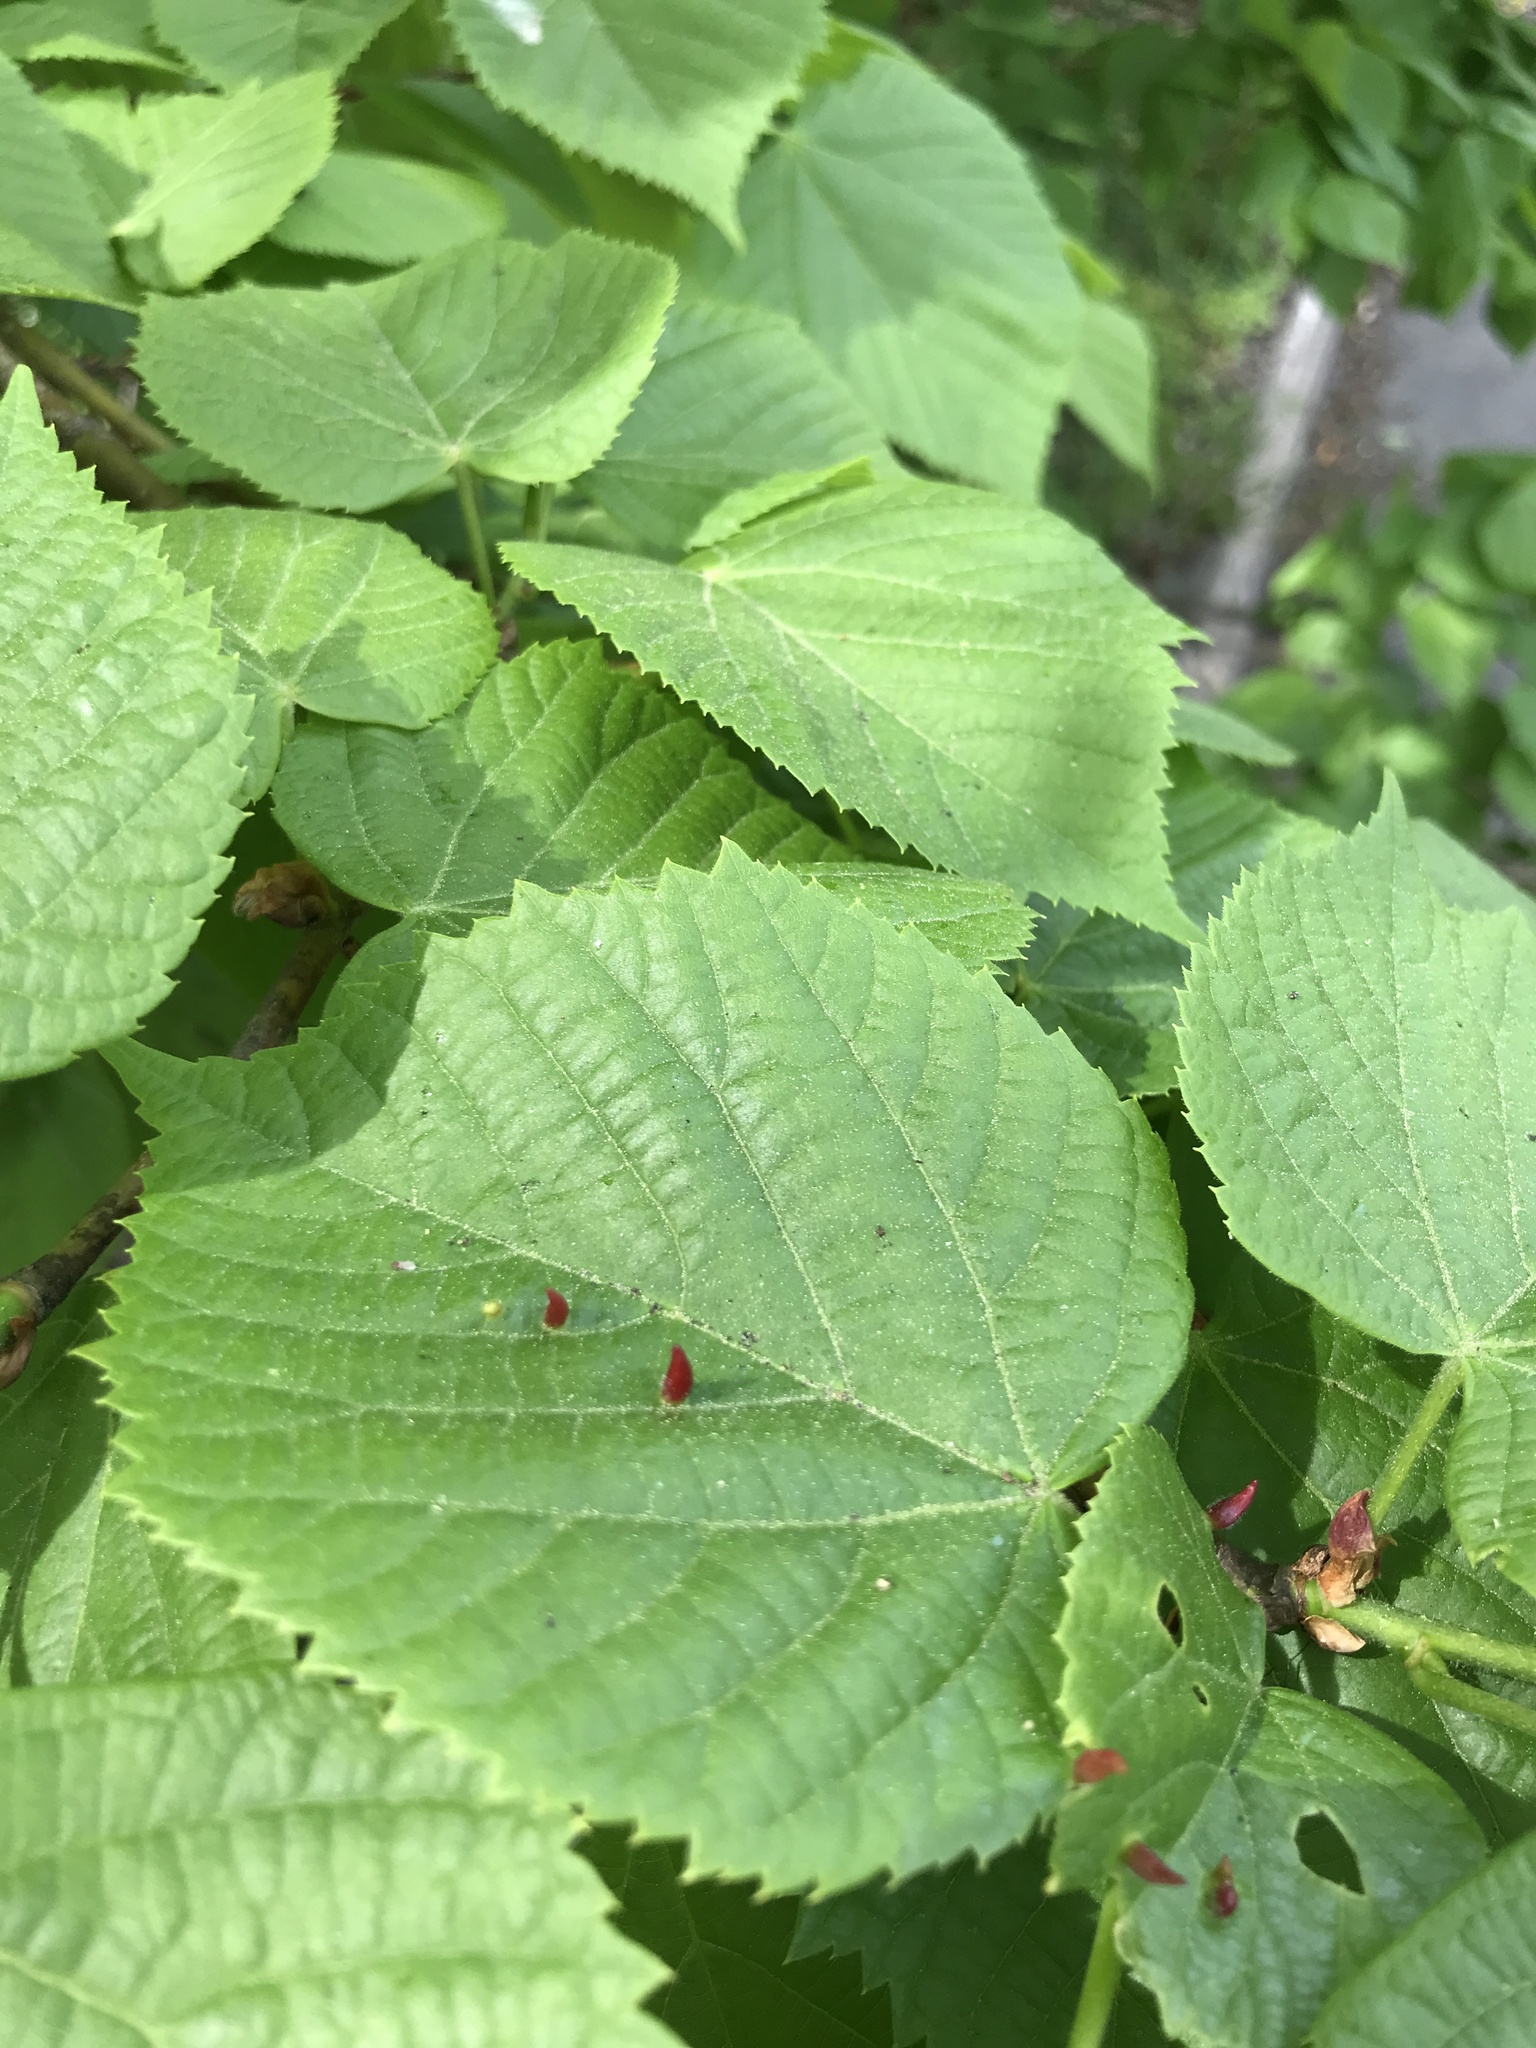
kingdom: Animalia
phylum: Arthropoda
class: Arachnida
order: Trombidiformes
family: Eriophyidae
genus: Eriophyes
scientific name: Eriophyes tiliae
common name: Red nail gall mite
